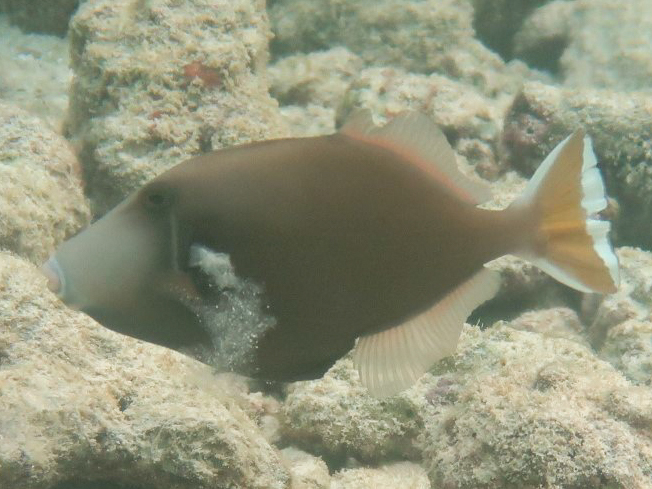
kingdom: Animalia
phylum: Chordata
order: Tetraodontiformes
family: Balistidae
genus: Sufflamen
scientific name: Sufflamen chrysopterum
